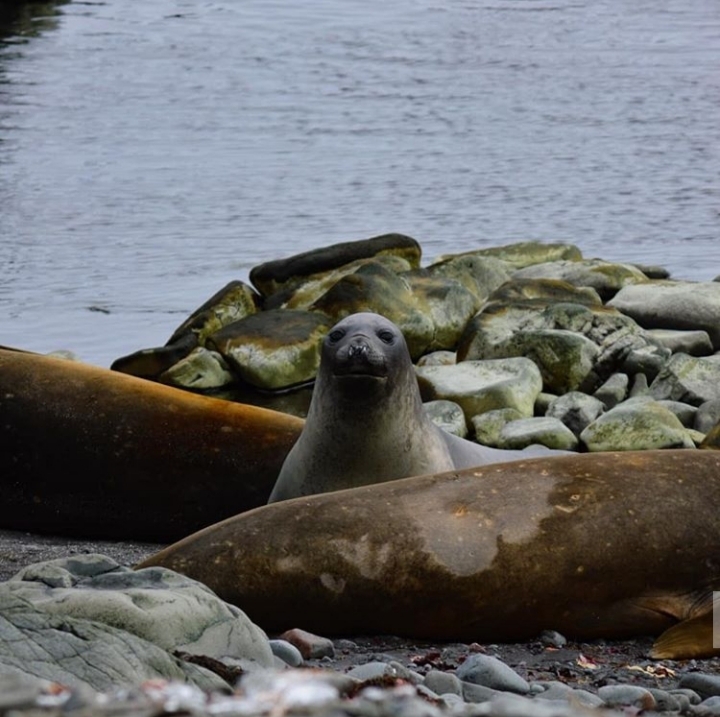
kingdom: Animalia
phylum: Chordata
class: Mammalia
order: Carnivora
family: Phocidae
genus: Mirounga
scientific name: Mirounga leonina
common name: Southern elephant seal
